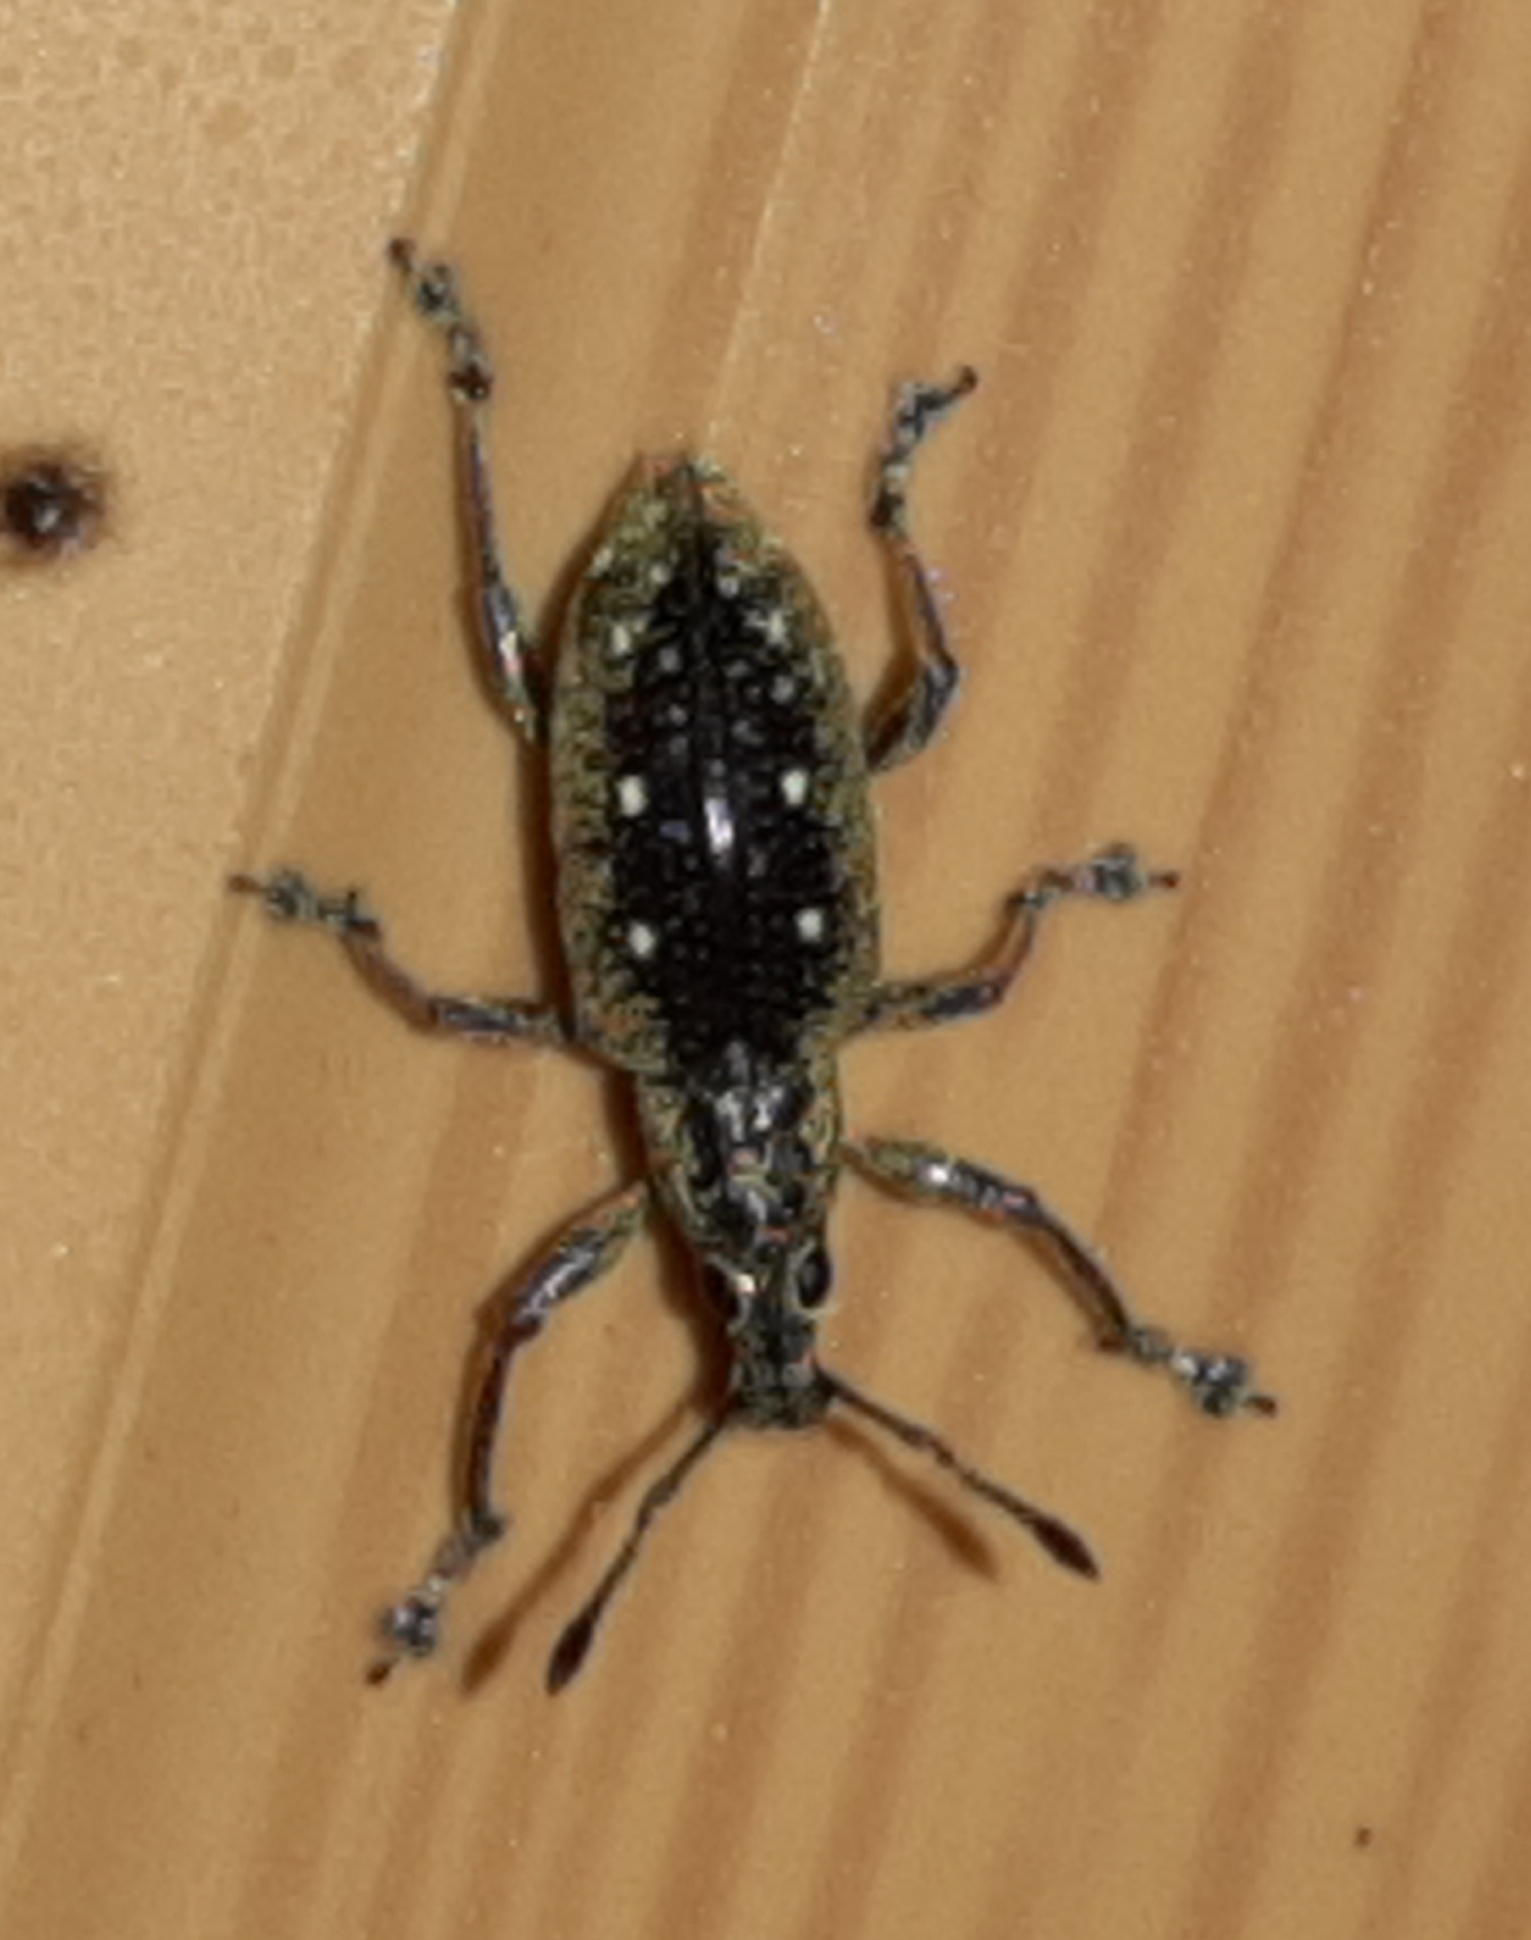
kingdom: Animalia
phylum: Arthropoda
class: Insecta
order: Coleoptera
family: Curculionidae
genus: Exophthalmus
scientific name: Exophthalmus jekelianus
